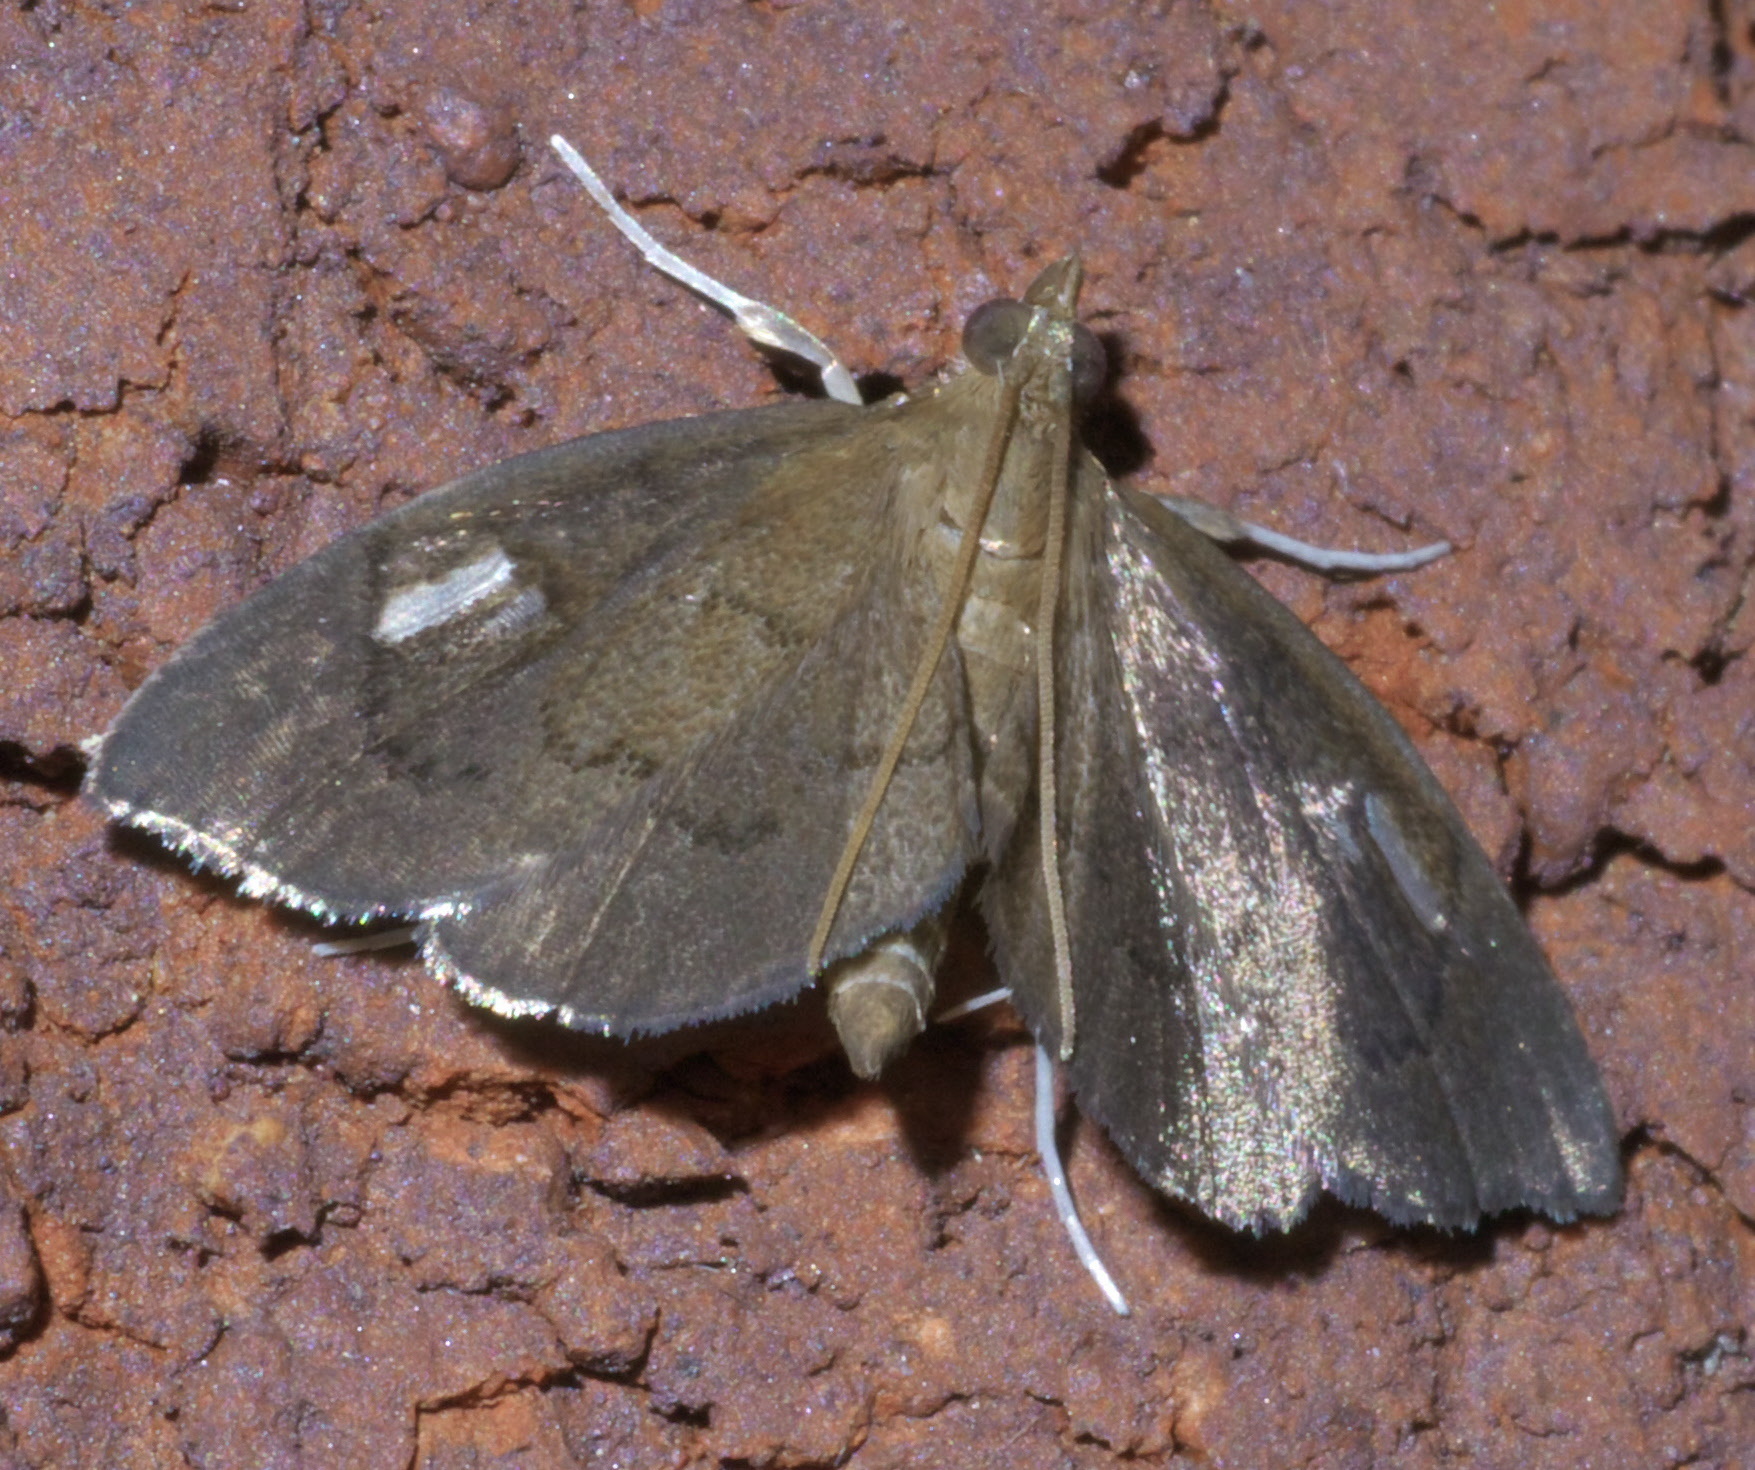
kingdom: Animalia
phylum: Arthropoda
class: Insecta
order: Lepidoptera
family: Crambidae
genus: Perispasta
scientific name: Perispasta caeculalis
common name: Titian peale's moth
